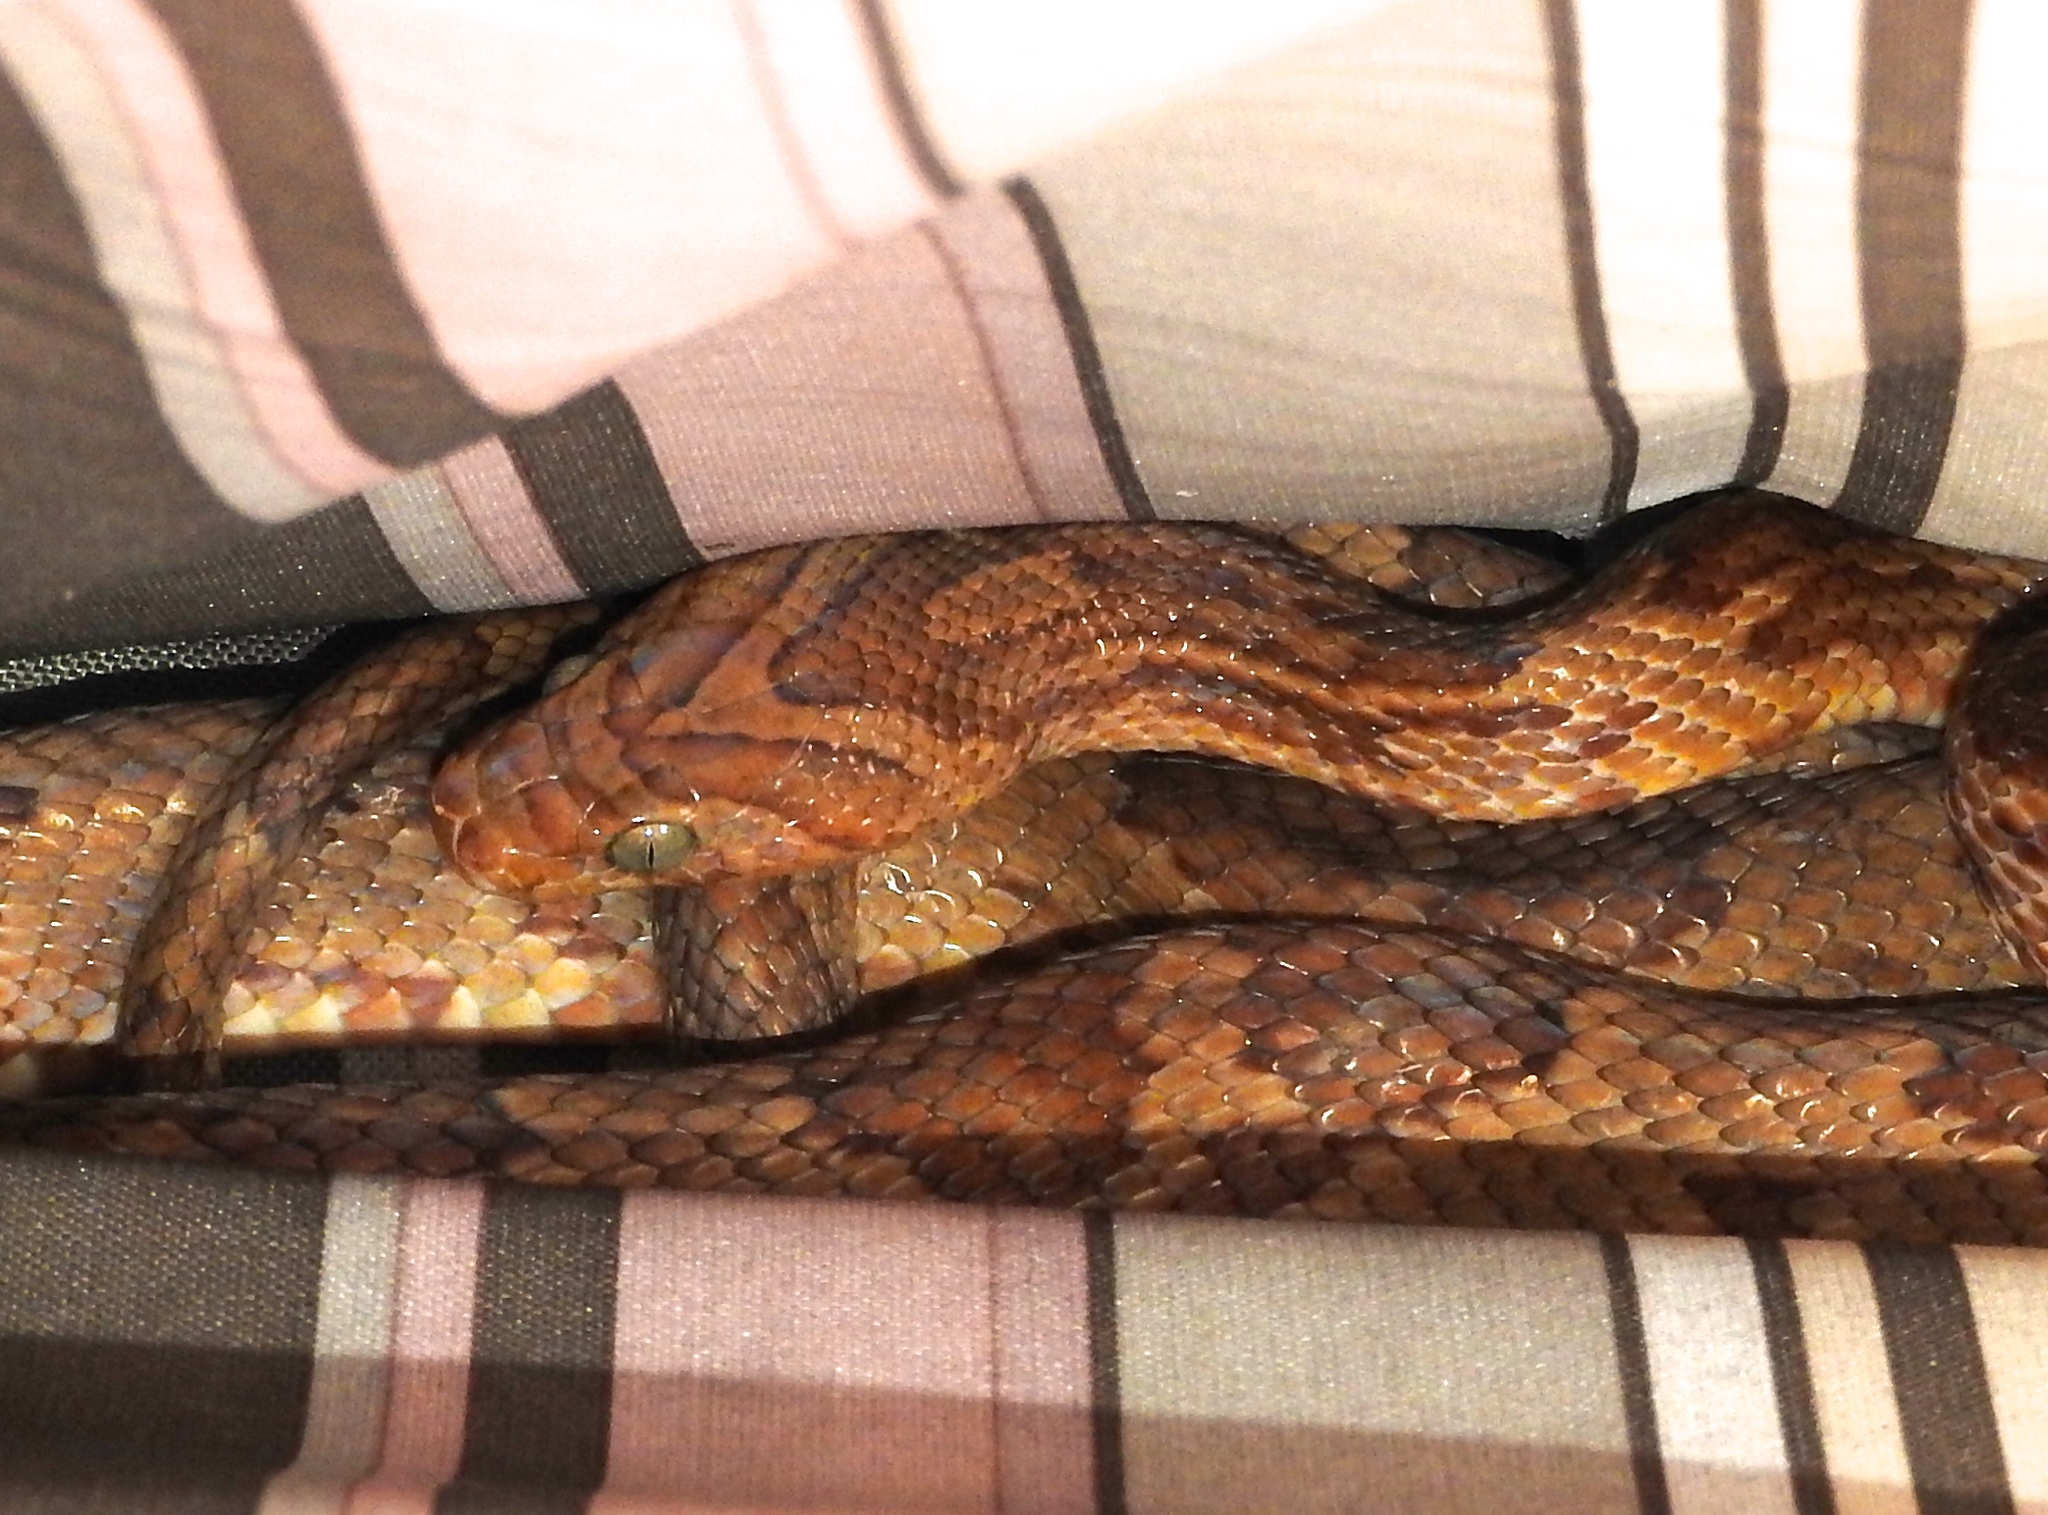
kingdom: Animalia
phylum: Chordata
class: Squamata
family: Colubridae
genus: Trimorphodon
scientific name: Trimorphodon paucimaculatus
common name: Sinaloan lyresnake
